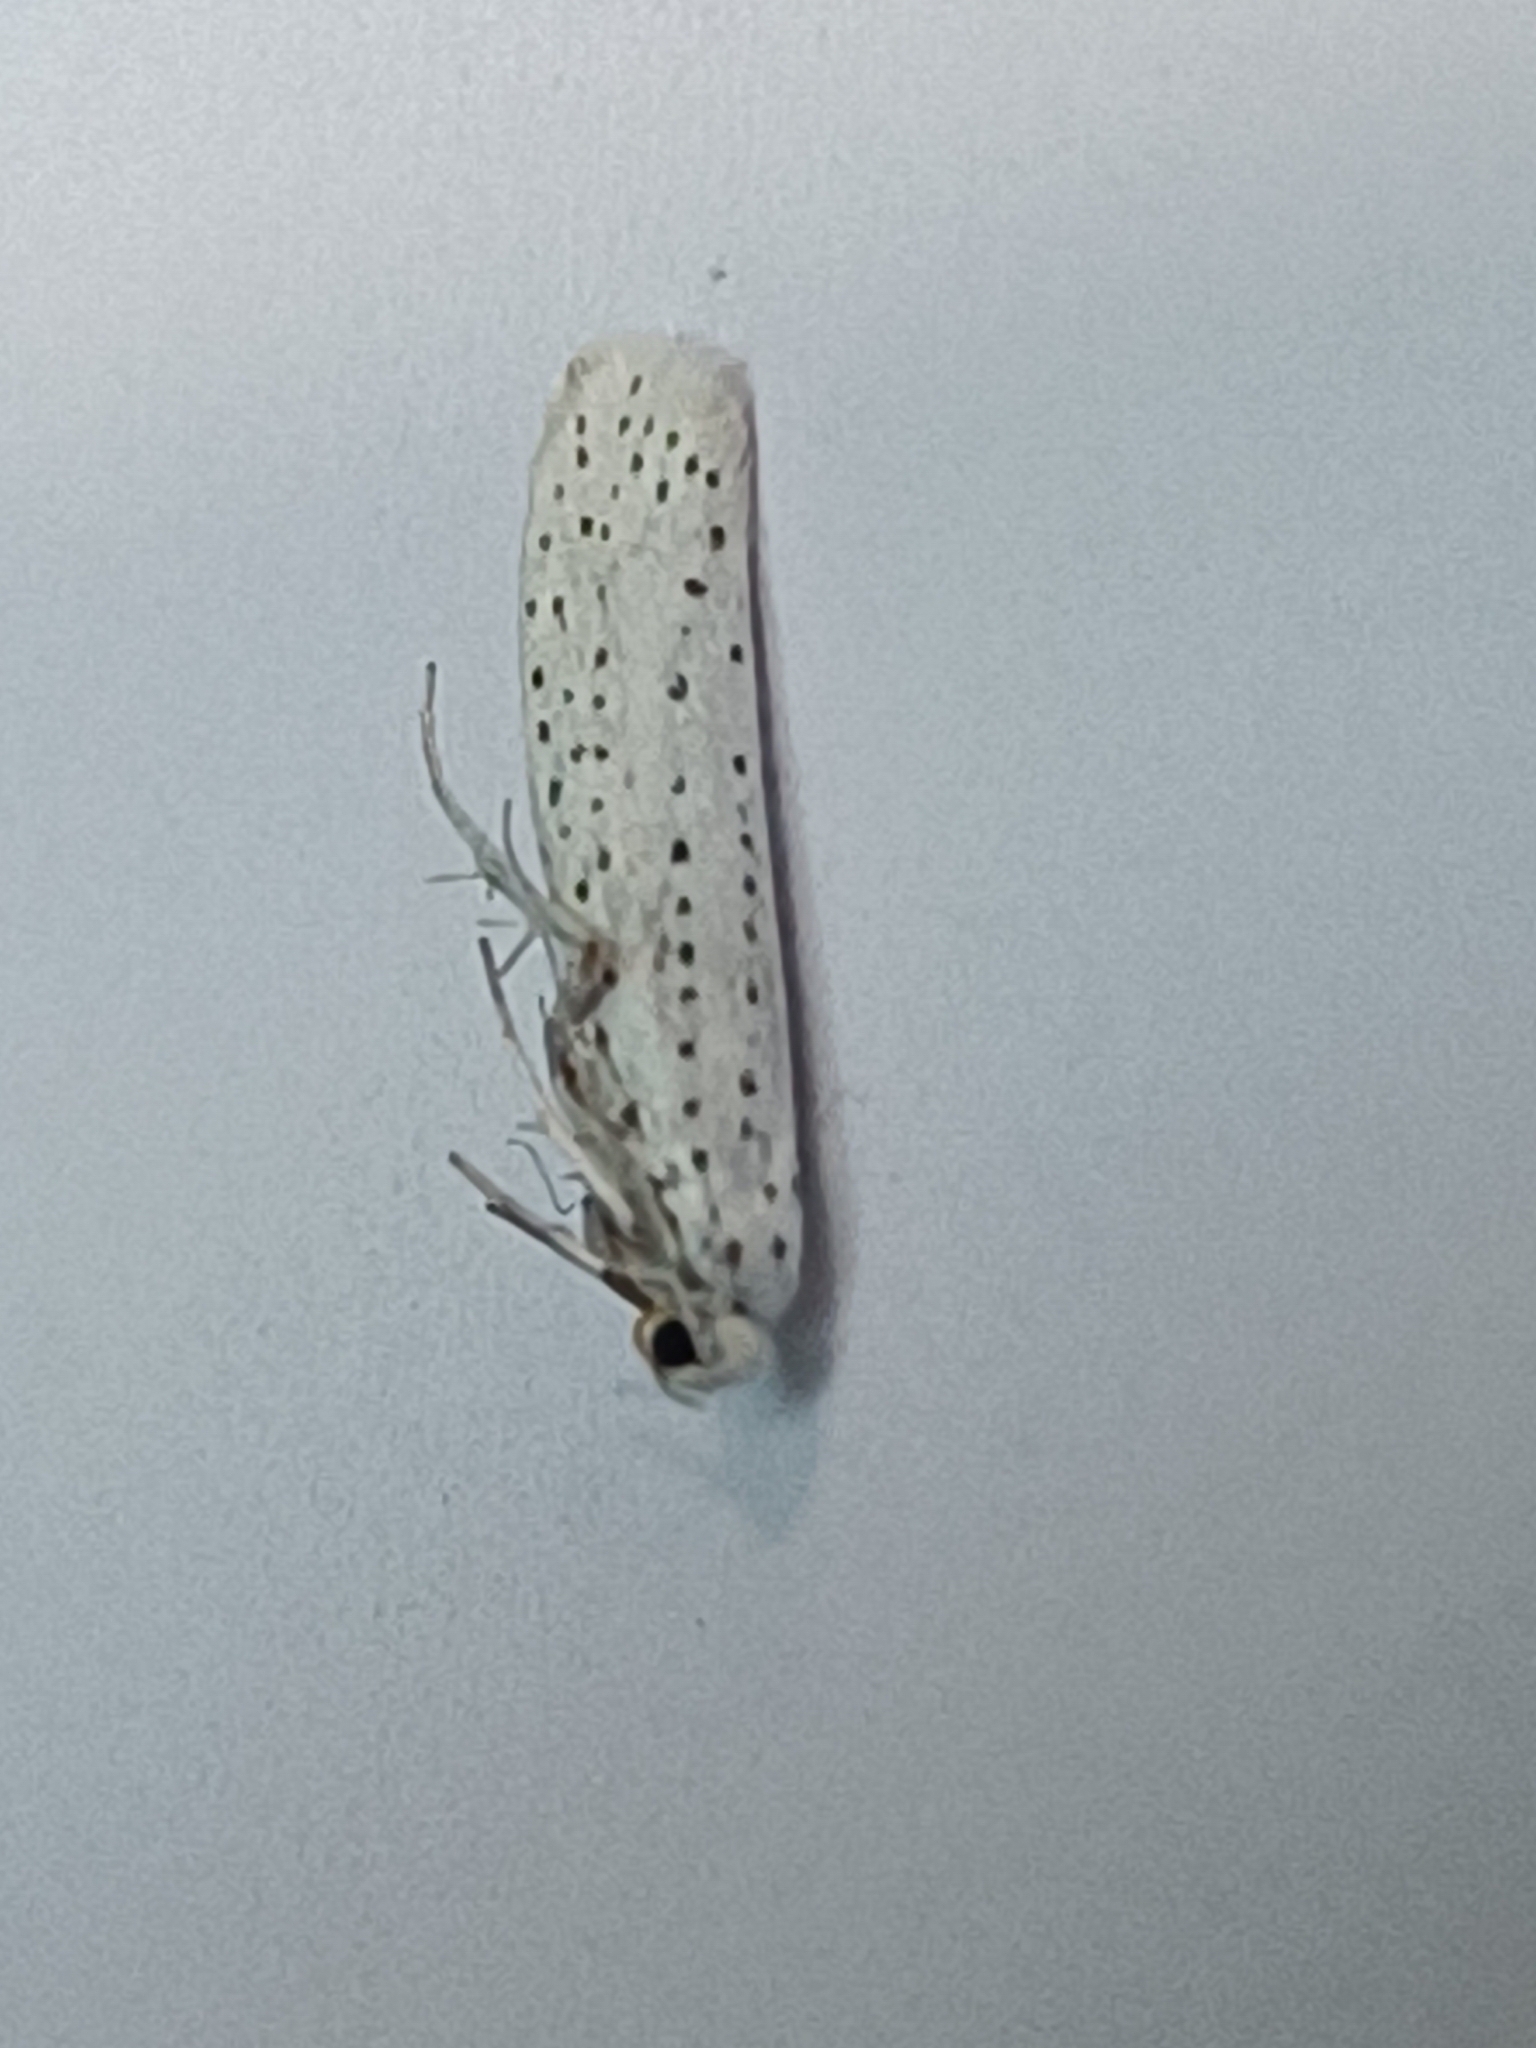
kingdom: Animalia
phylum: Arthropoda
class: Insecta
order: Lepidoptera
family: Yponomeutidae
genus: Yponomeuta
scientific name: Yponomeuta evonymella
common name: Bird-cherry ermine
